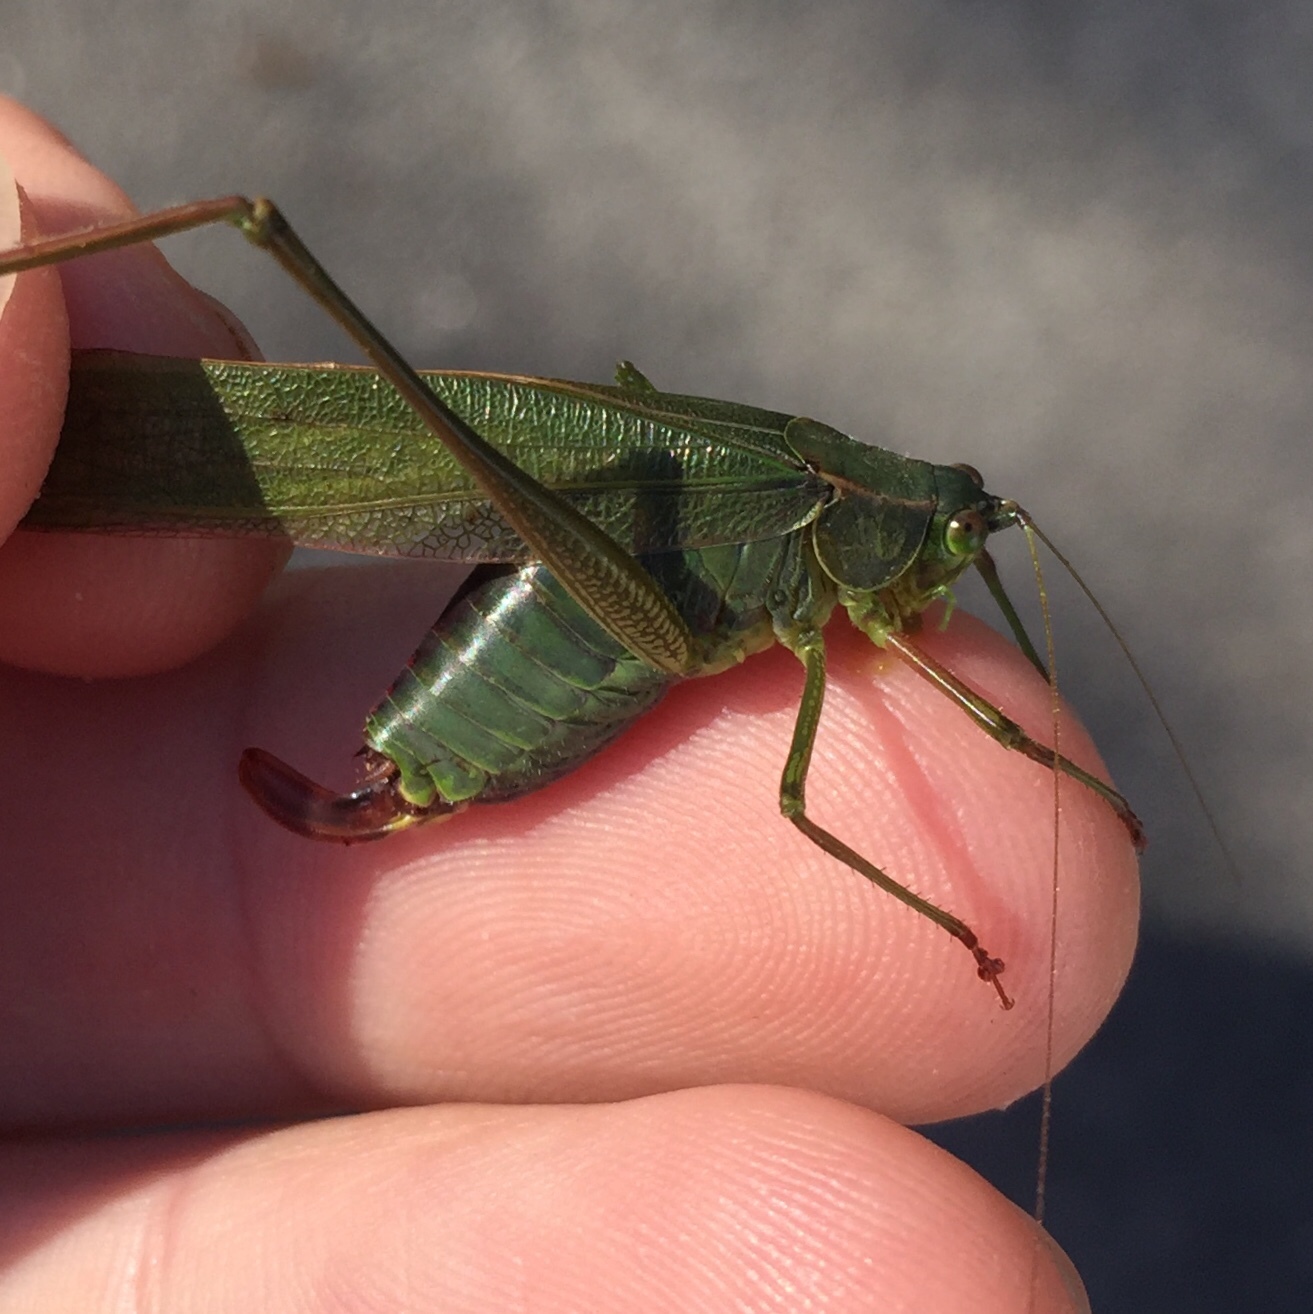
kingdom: Animalia
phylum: Arthropoda
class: Insecta
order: Orthoptera
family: Tettigoniidae
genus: Scudderia
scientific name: Scudderia furcata
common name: Fork-tailed bush katydid
